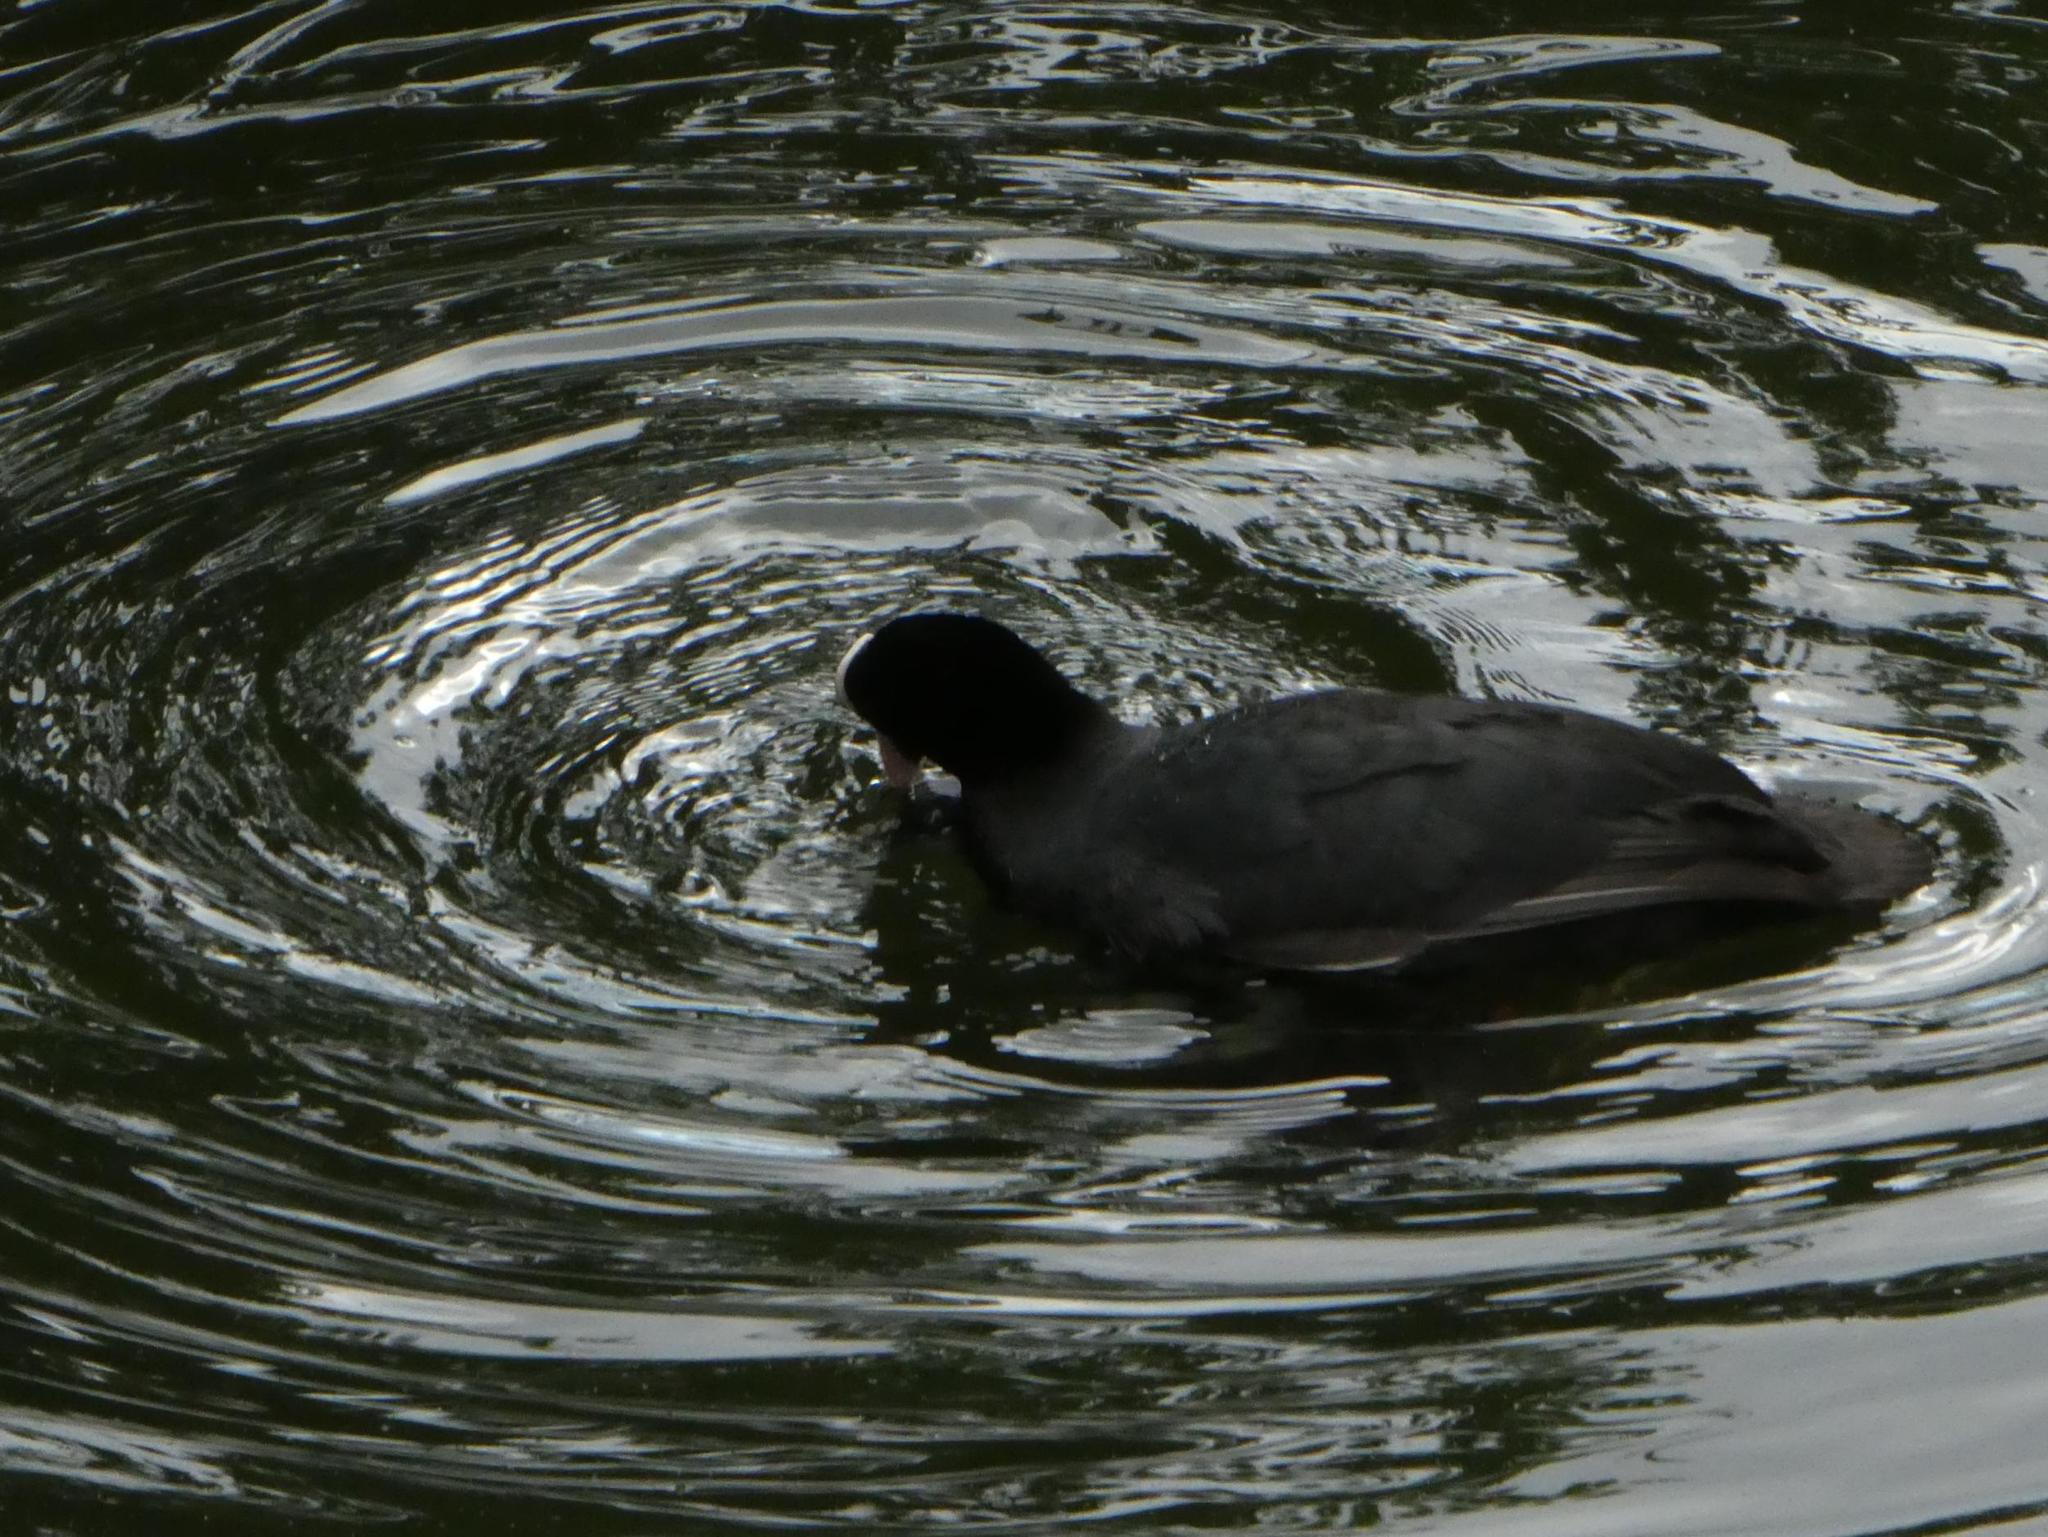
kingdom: Animalia
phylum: Chordata
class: Aves
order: Gruiformes
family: Rallidae
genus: Fulica
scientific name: Fulica atra
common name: Eurasian coot
